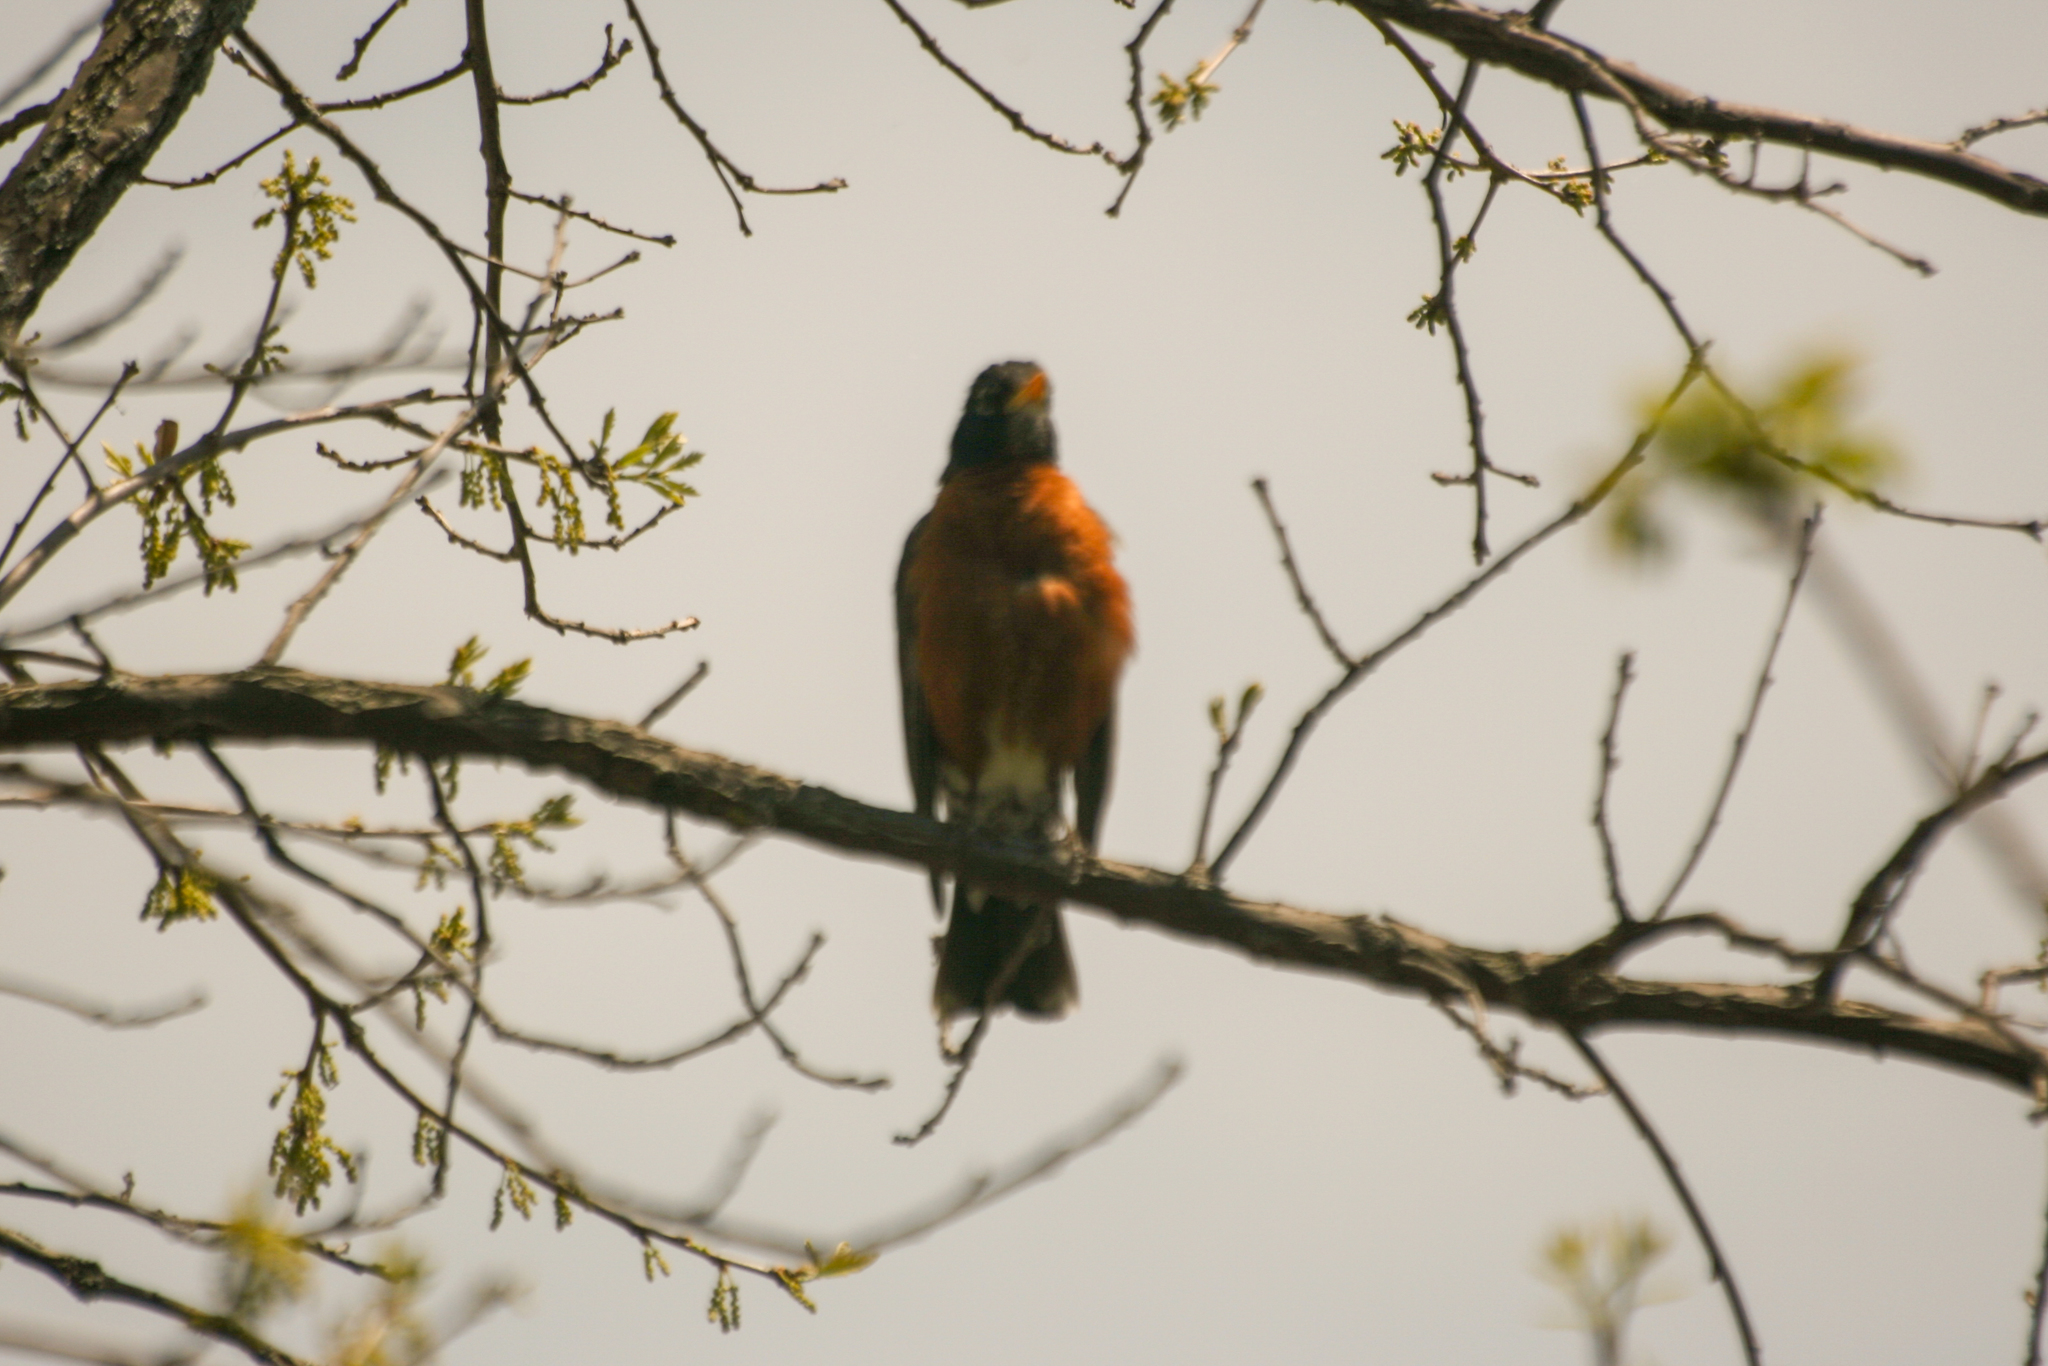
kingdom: Animalia
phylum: Chordata
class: Aves
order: Passeriformes
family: Turdidae
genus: Turdus
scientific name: Turdus migratorius
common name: American robin
